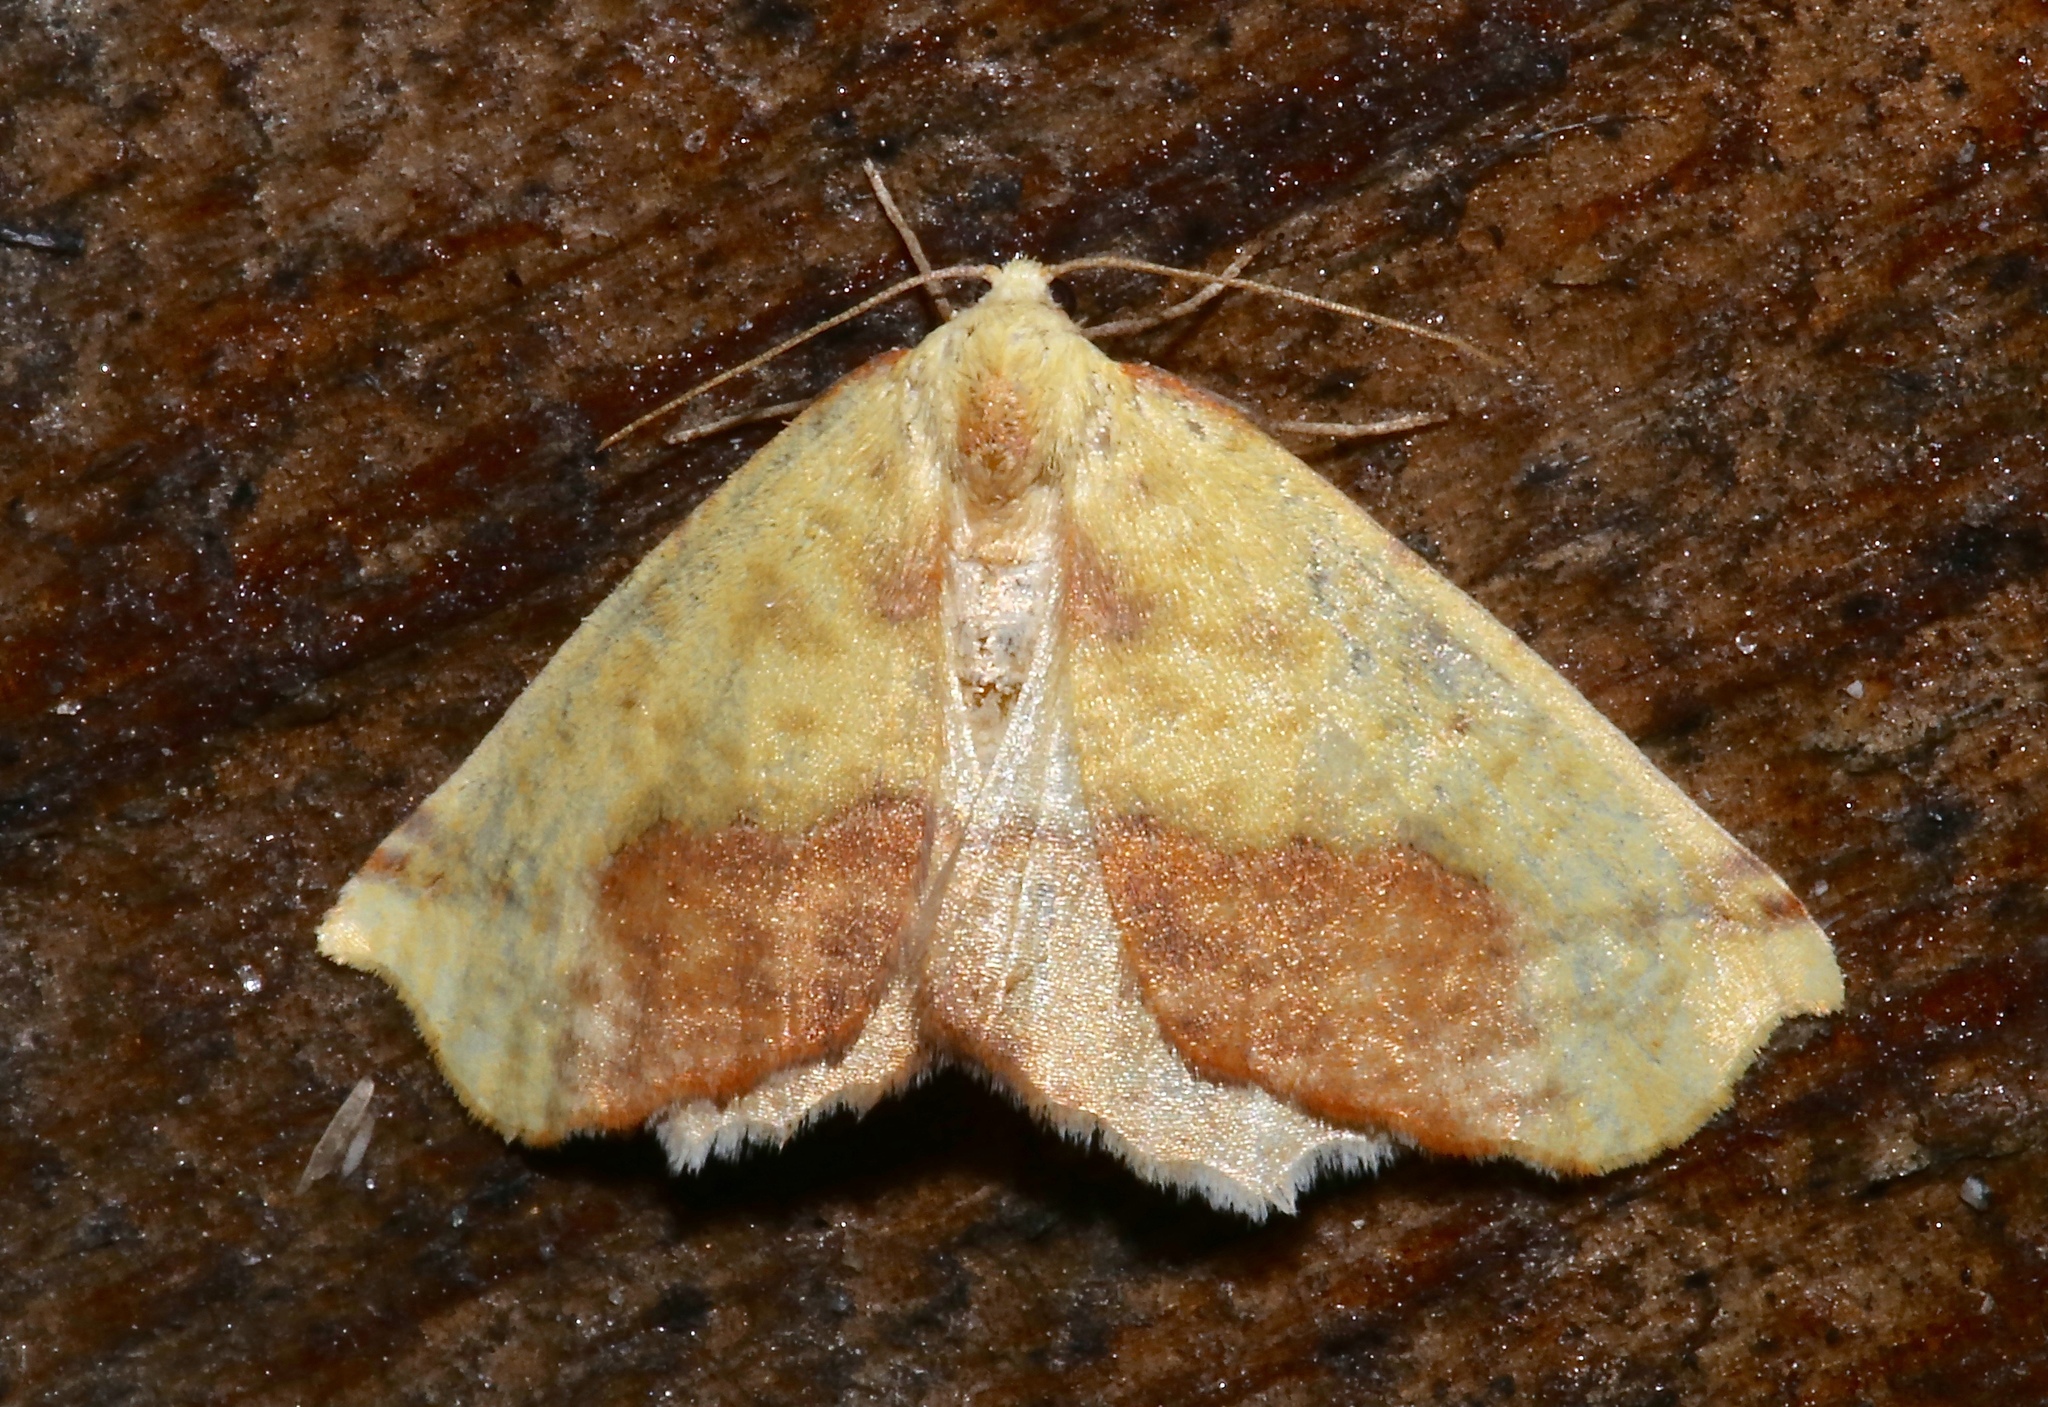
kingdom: Animalia
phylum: Arthropoda
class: Insecta
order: Lepidoptera
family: Geometridae
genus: Sicya
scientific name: Sicya macularia
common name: Sharp-lined yellow
